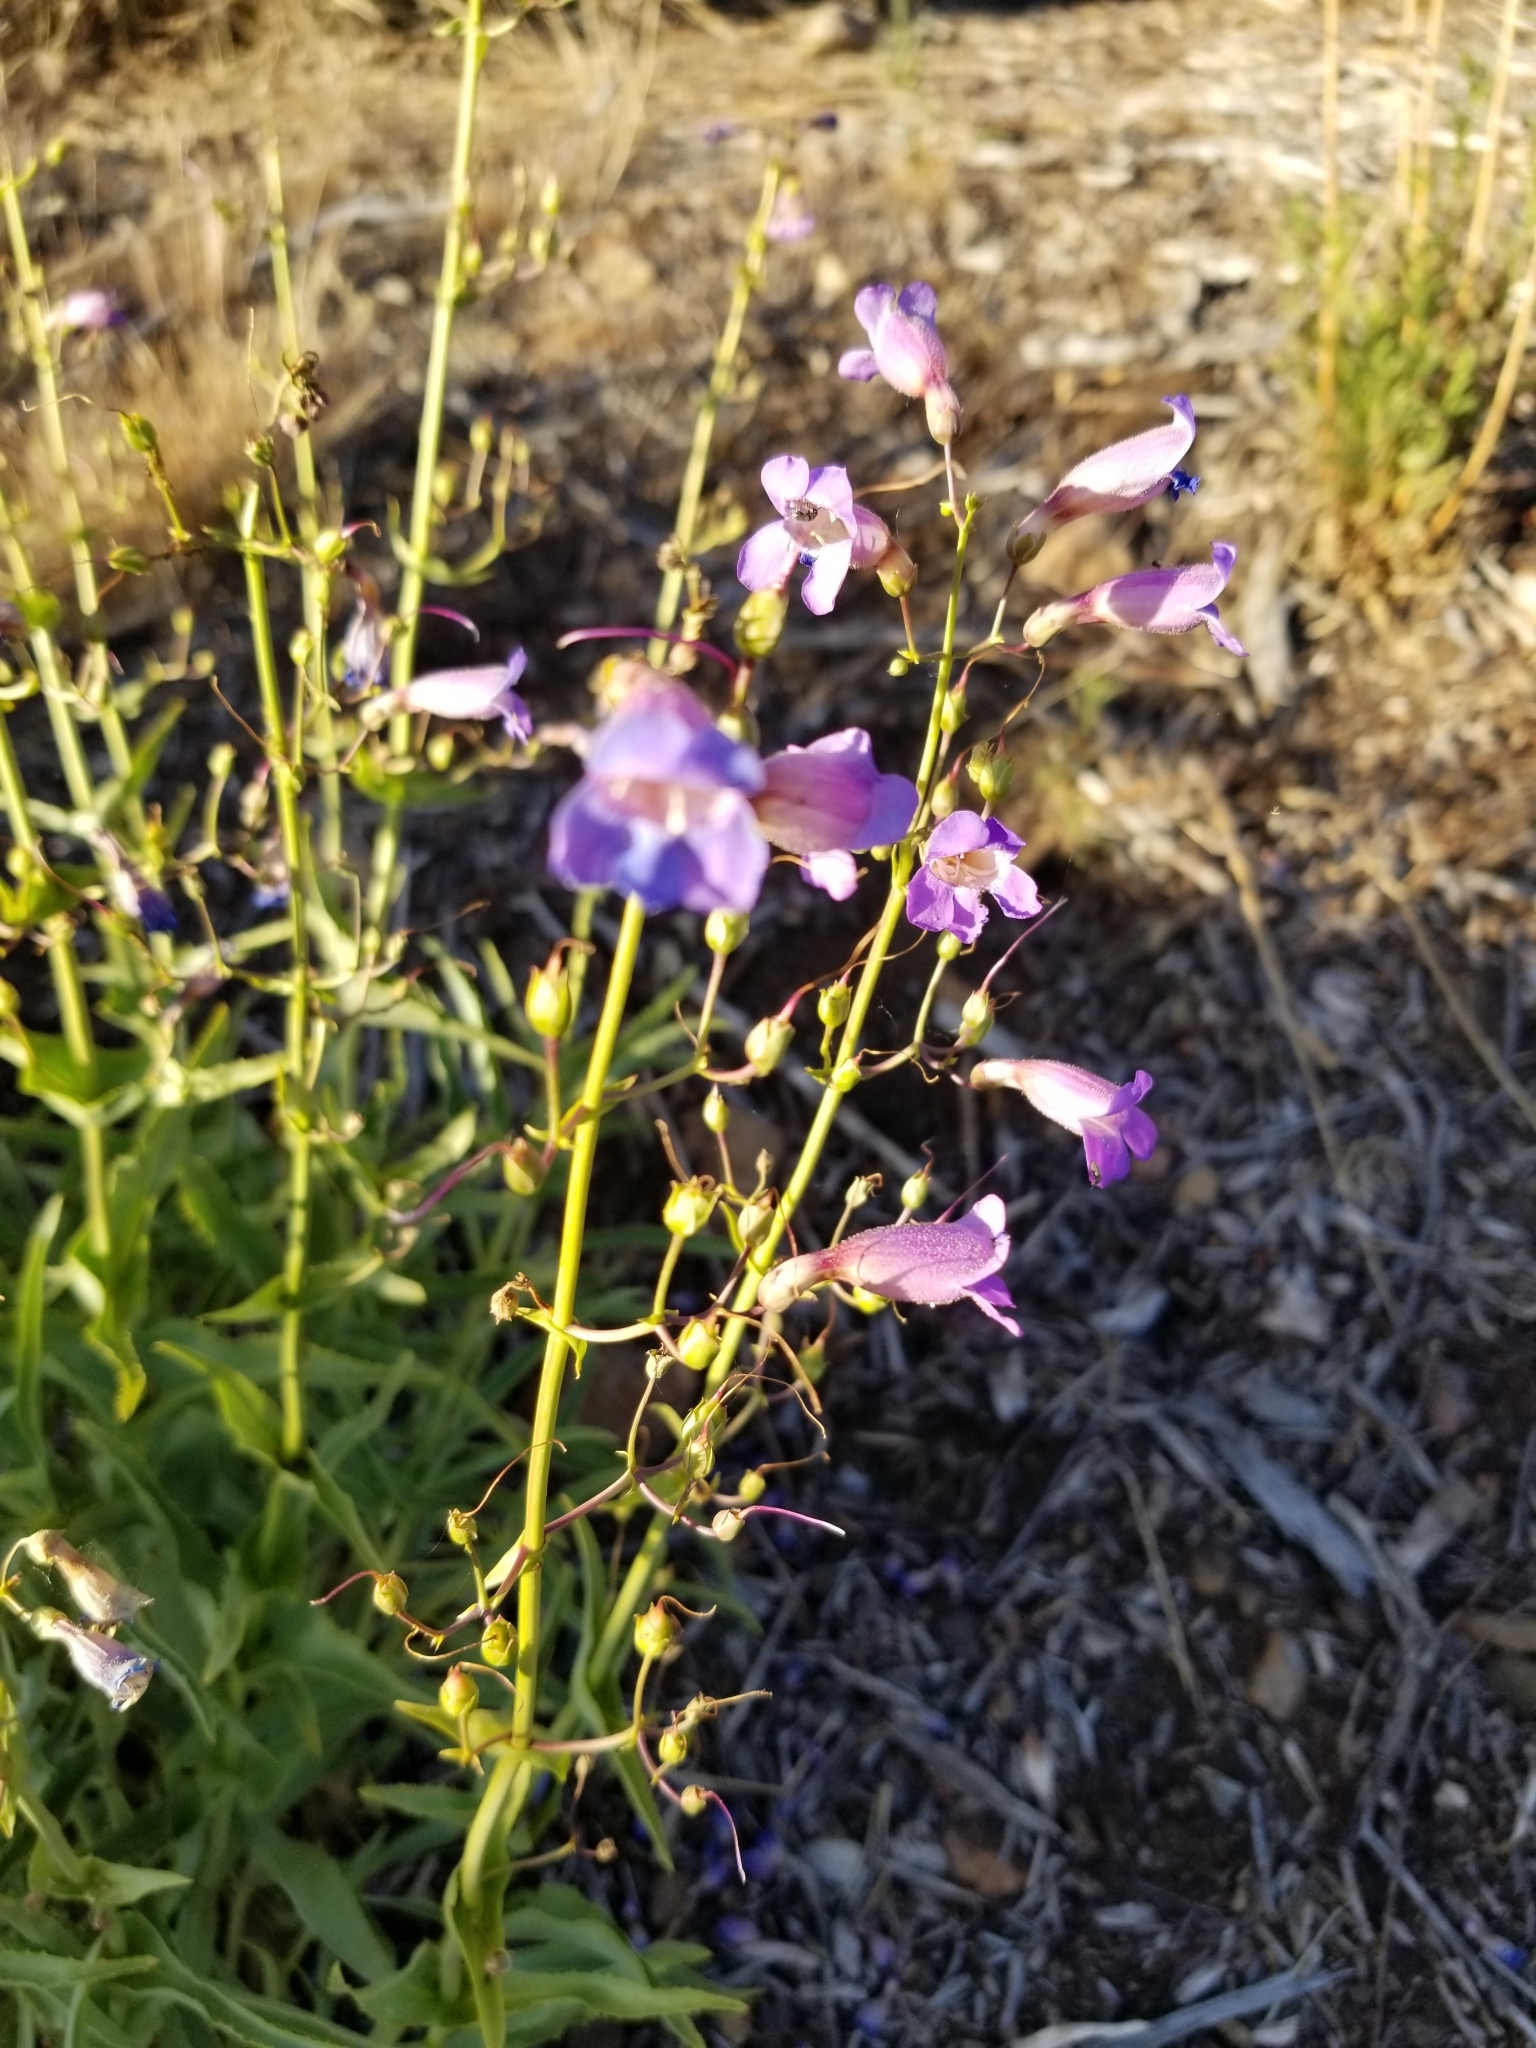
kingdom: Plantae
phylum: Tracheophyta
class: Magnoliopsida
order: Lamiales
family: Plantaginaceae
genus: Penstemon
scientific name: Penstemon spectabilis
